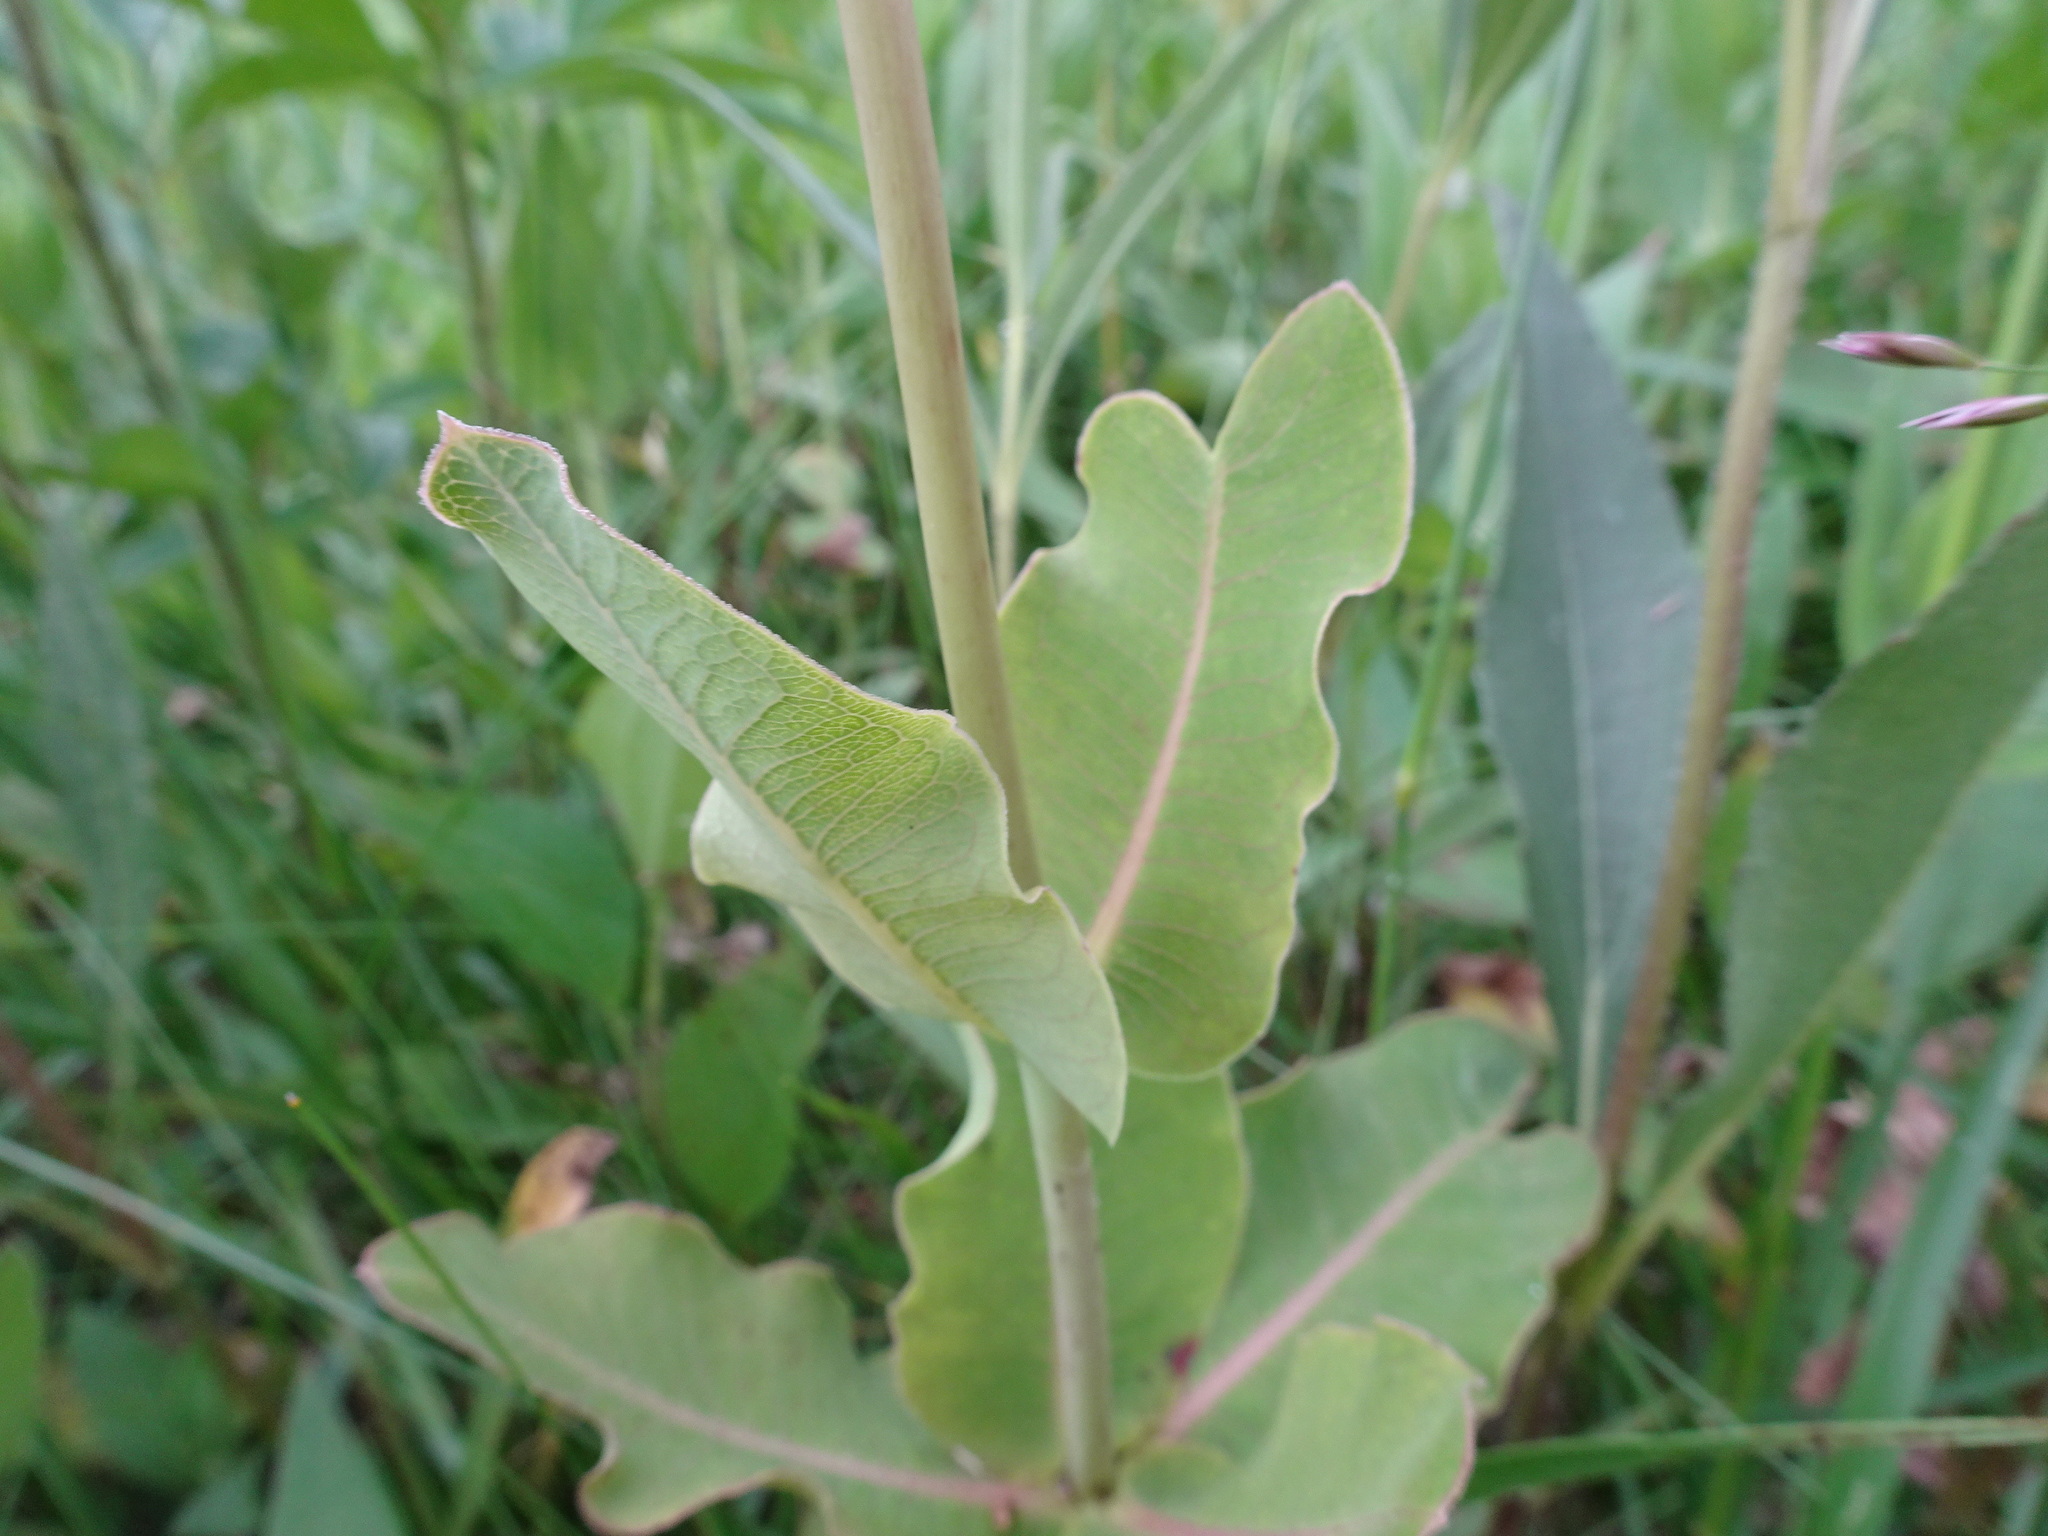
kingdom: Plantae
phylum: Tracheophyta
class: Magnoliopsida
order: Gentianales
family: Apocynaceae
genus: Asclepias
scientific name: Asclepias amplexicaulis
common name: Blunt-leaf milkweed
